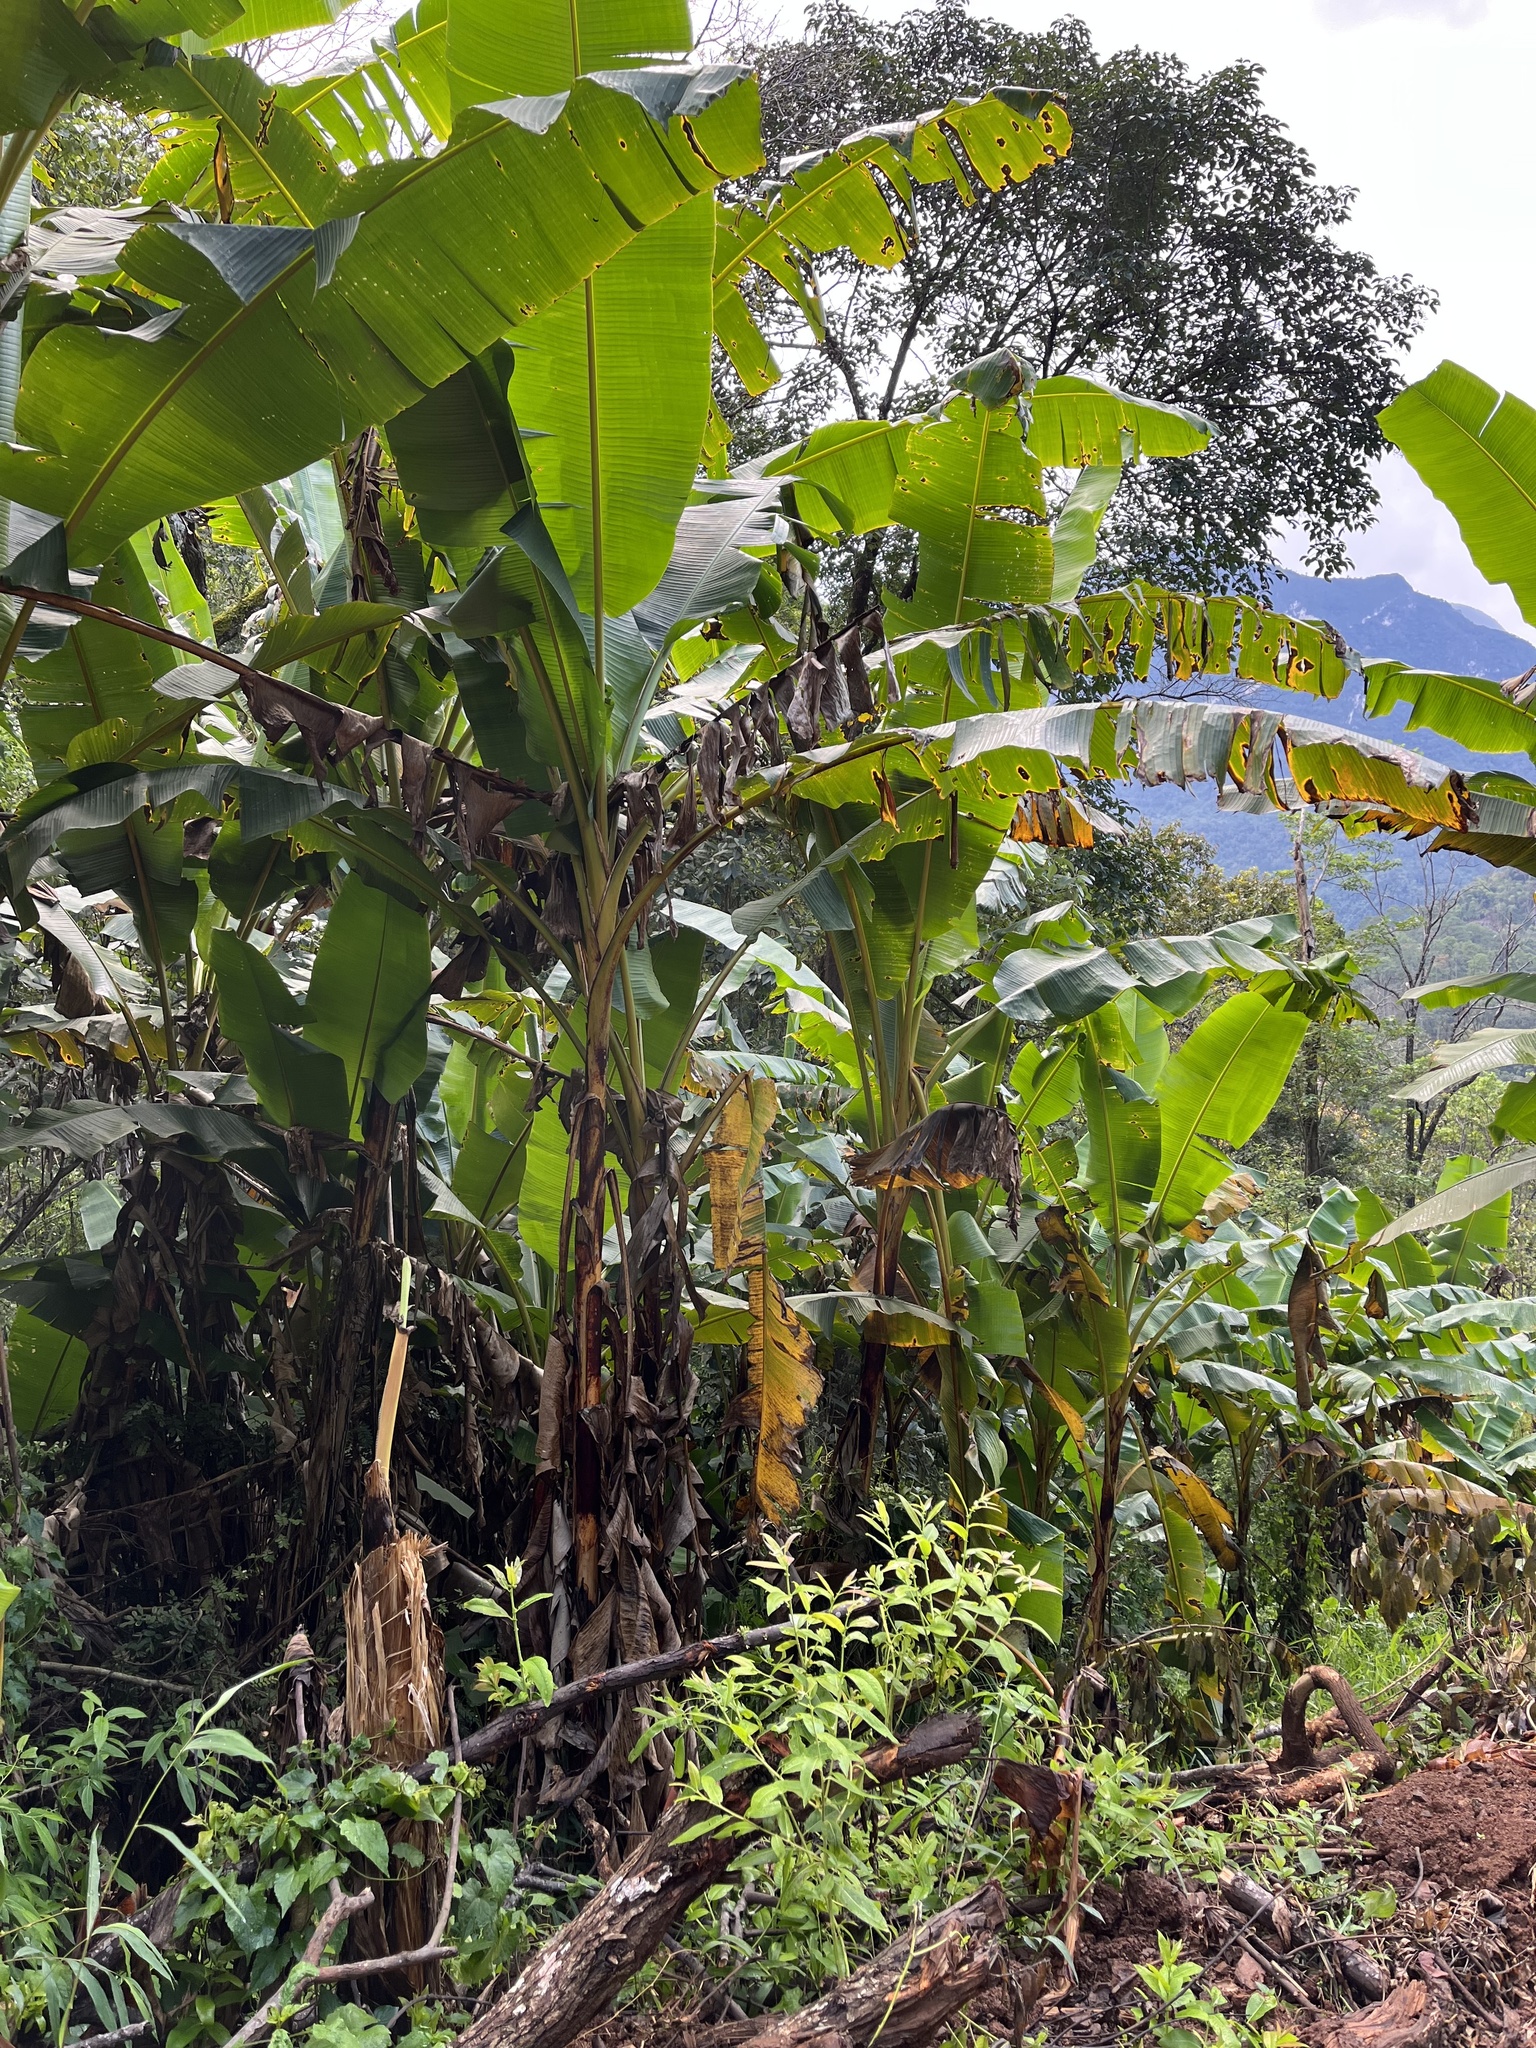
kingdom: Plantae
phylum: Tracheophyta
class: Liliopsida
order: Zingiberales
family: Musaceae
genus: Musa
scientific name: Musa itinerans
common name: Yunnan banana
